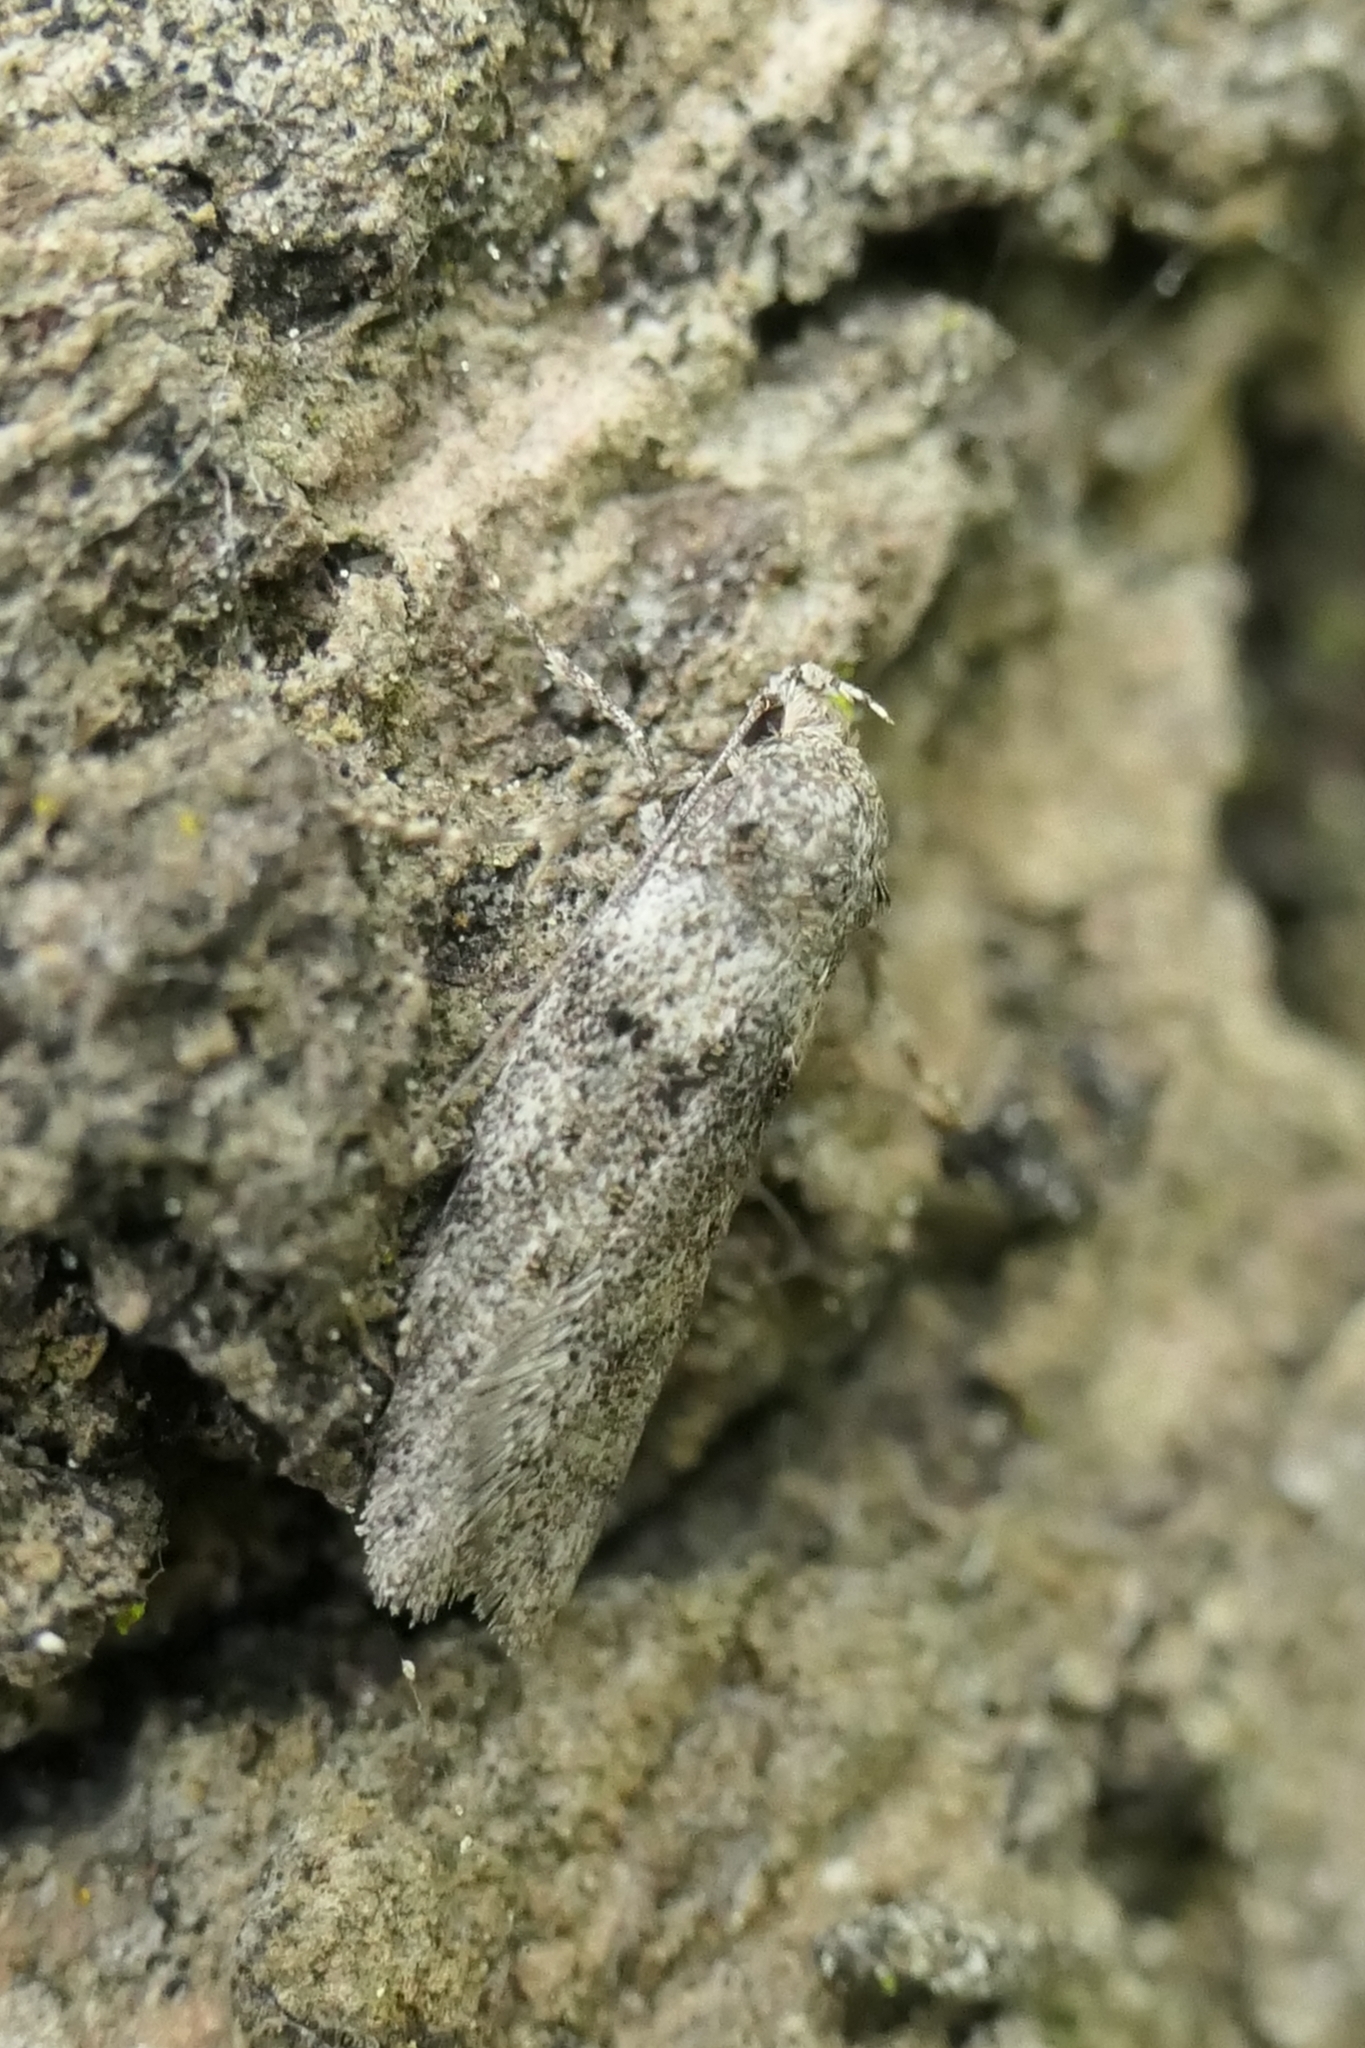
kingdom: Animalia
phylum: Arthropoda
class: Insecta
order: Lepidoptera
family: Oecophoridae
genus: Izatha
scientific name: Izatha convulsella
